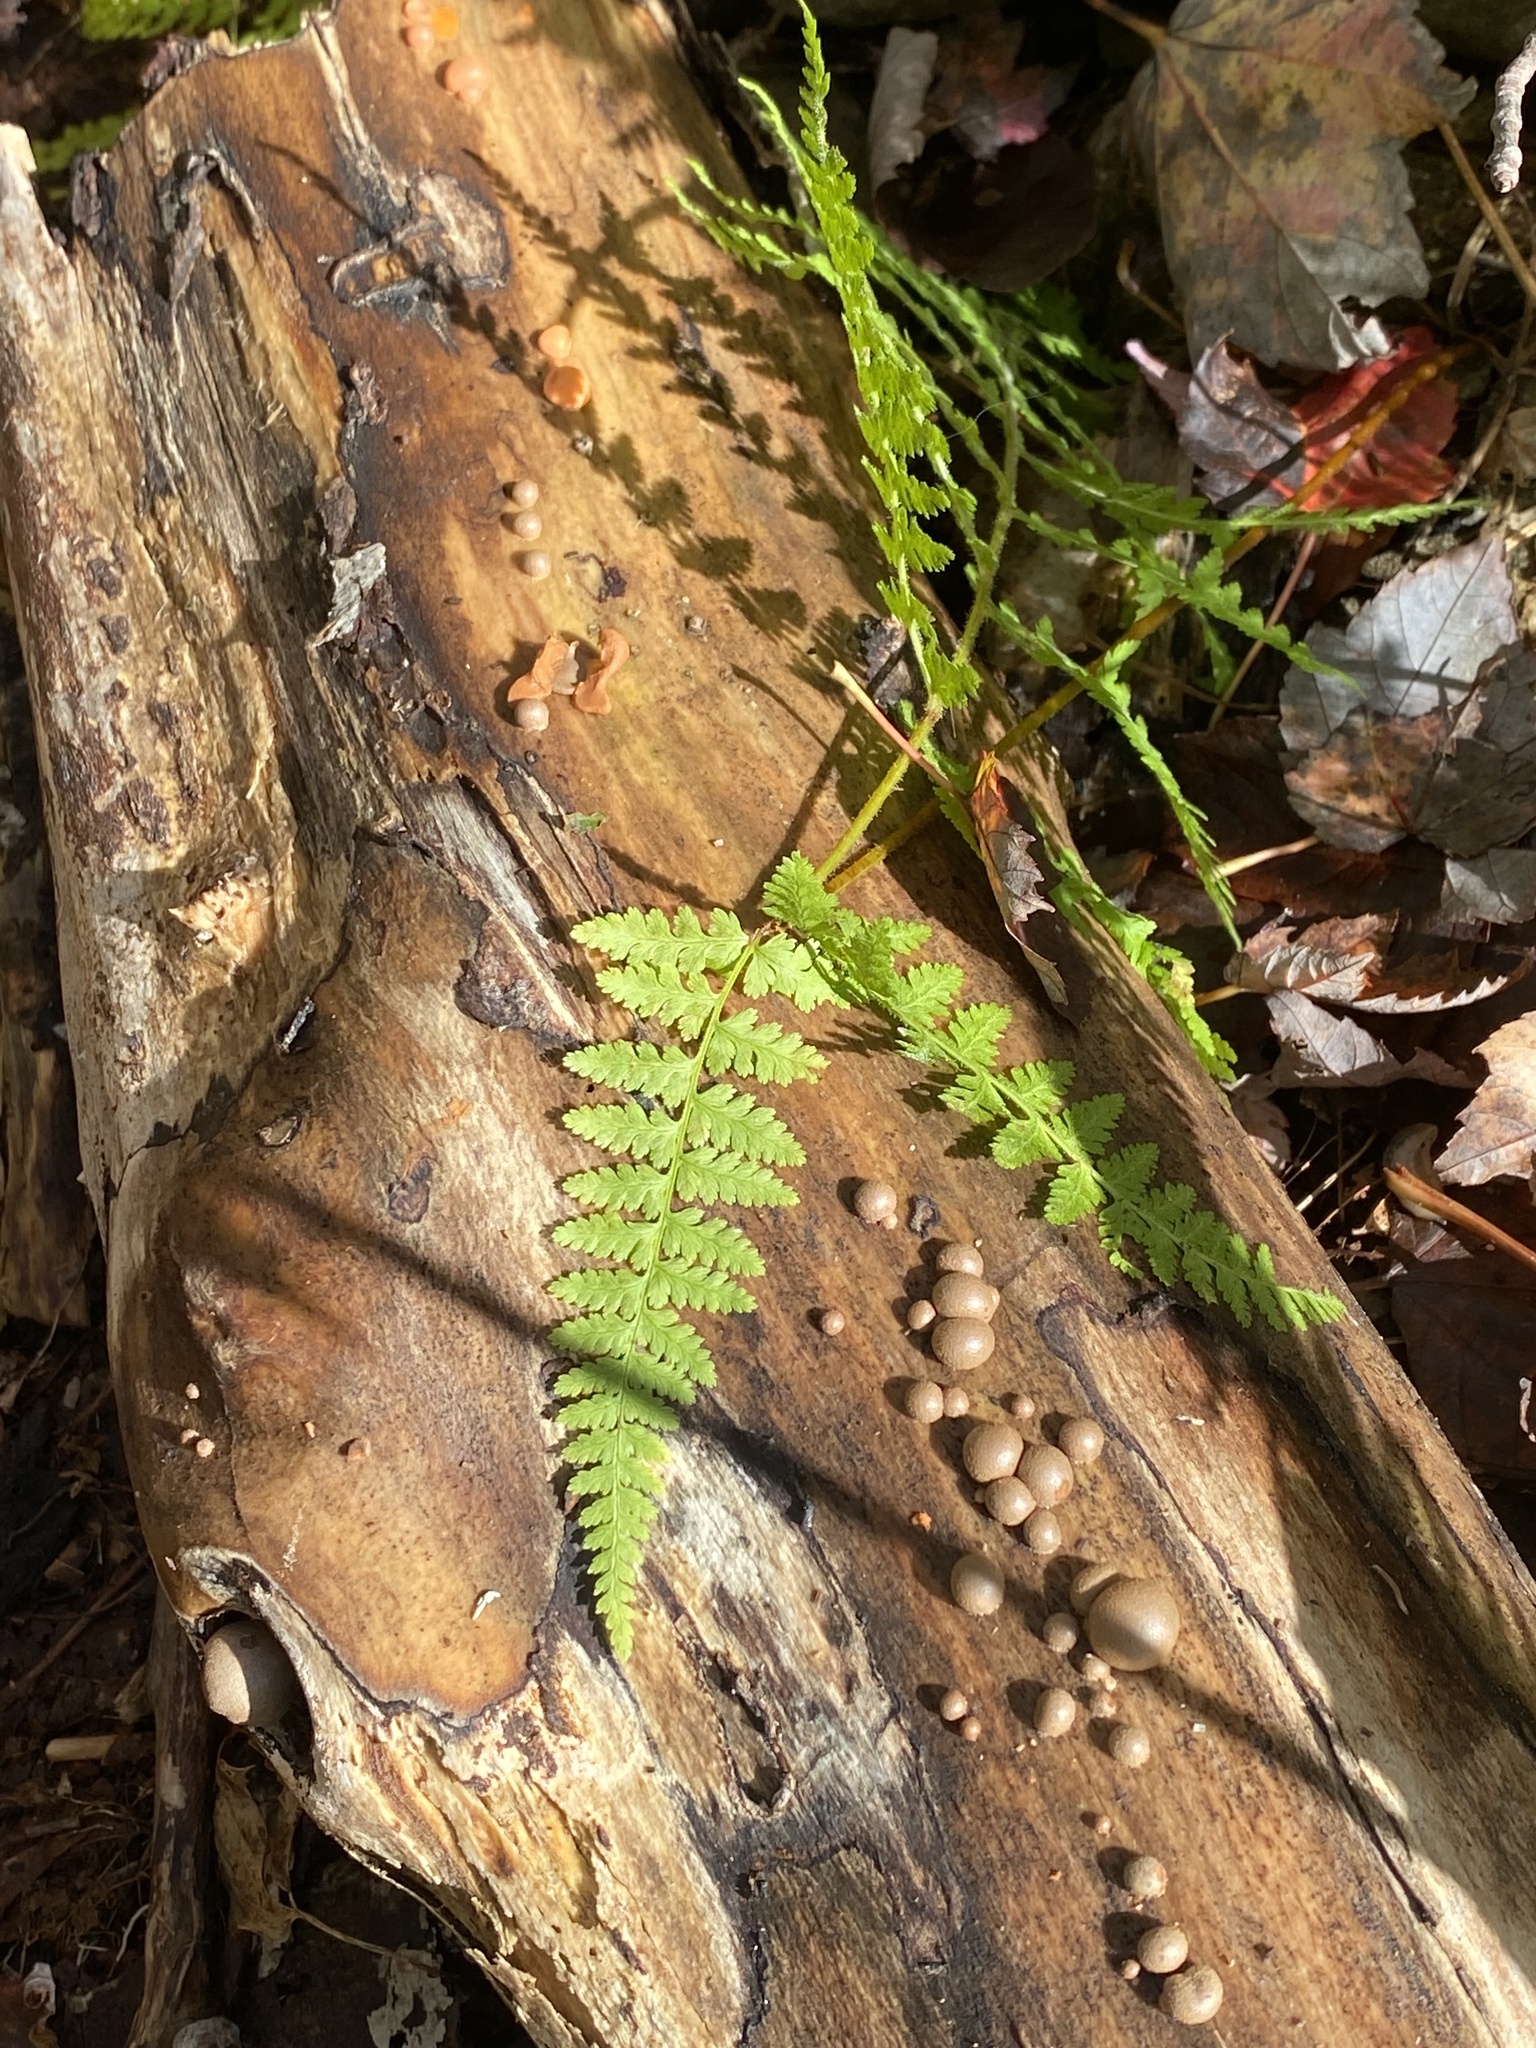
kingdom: Protozoa
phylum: Mycetozoa
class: Myxomycetes
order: Cribrariales
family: Tubiferaceae
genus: Lycogala
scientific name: Lycogala epidendrum
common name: Wolf's milk
